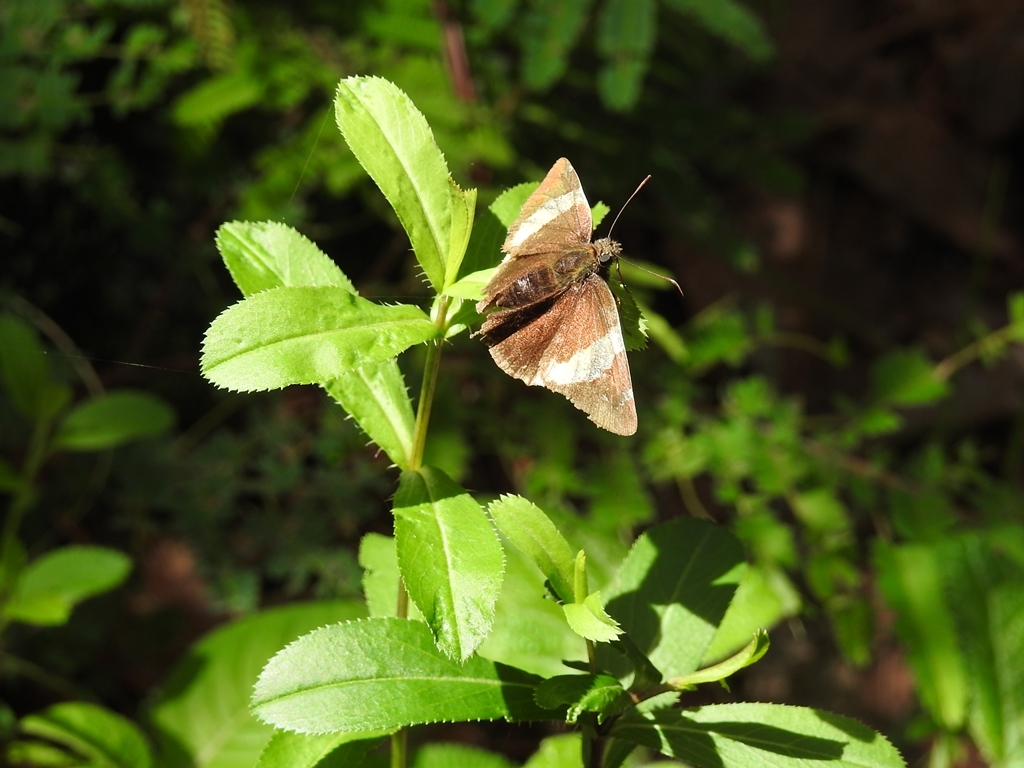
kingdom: Animalia
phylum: Arthropoda
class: Arachnida
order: Scorpiones
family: Bothriuridae
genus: Telegonus
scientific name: Telegonus cellus
